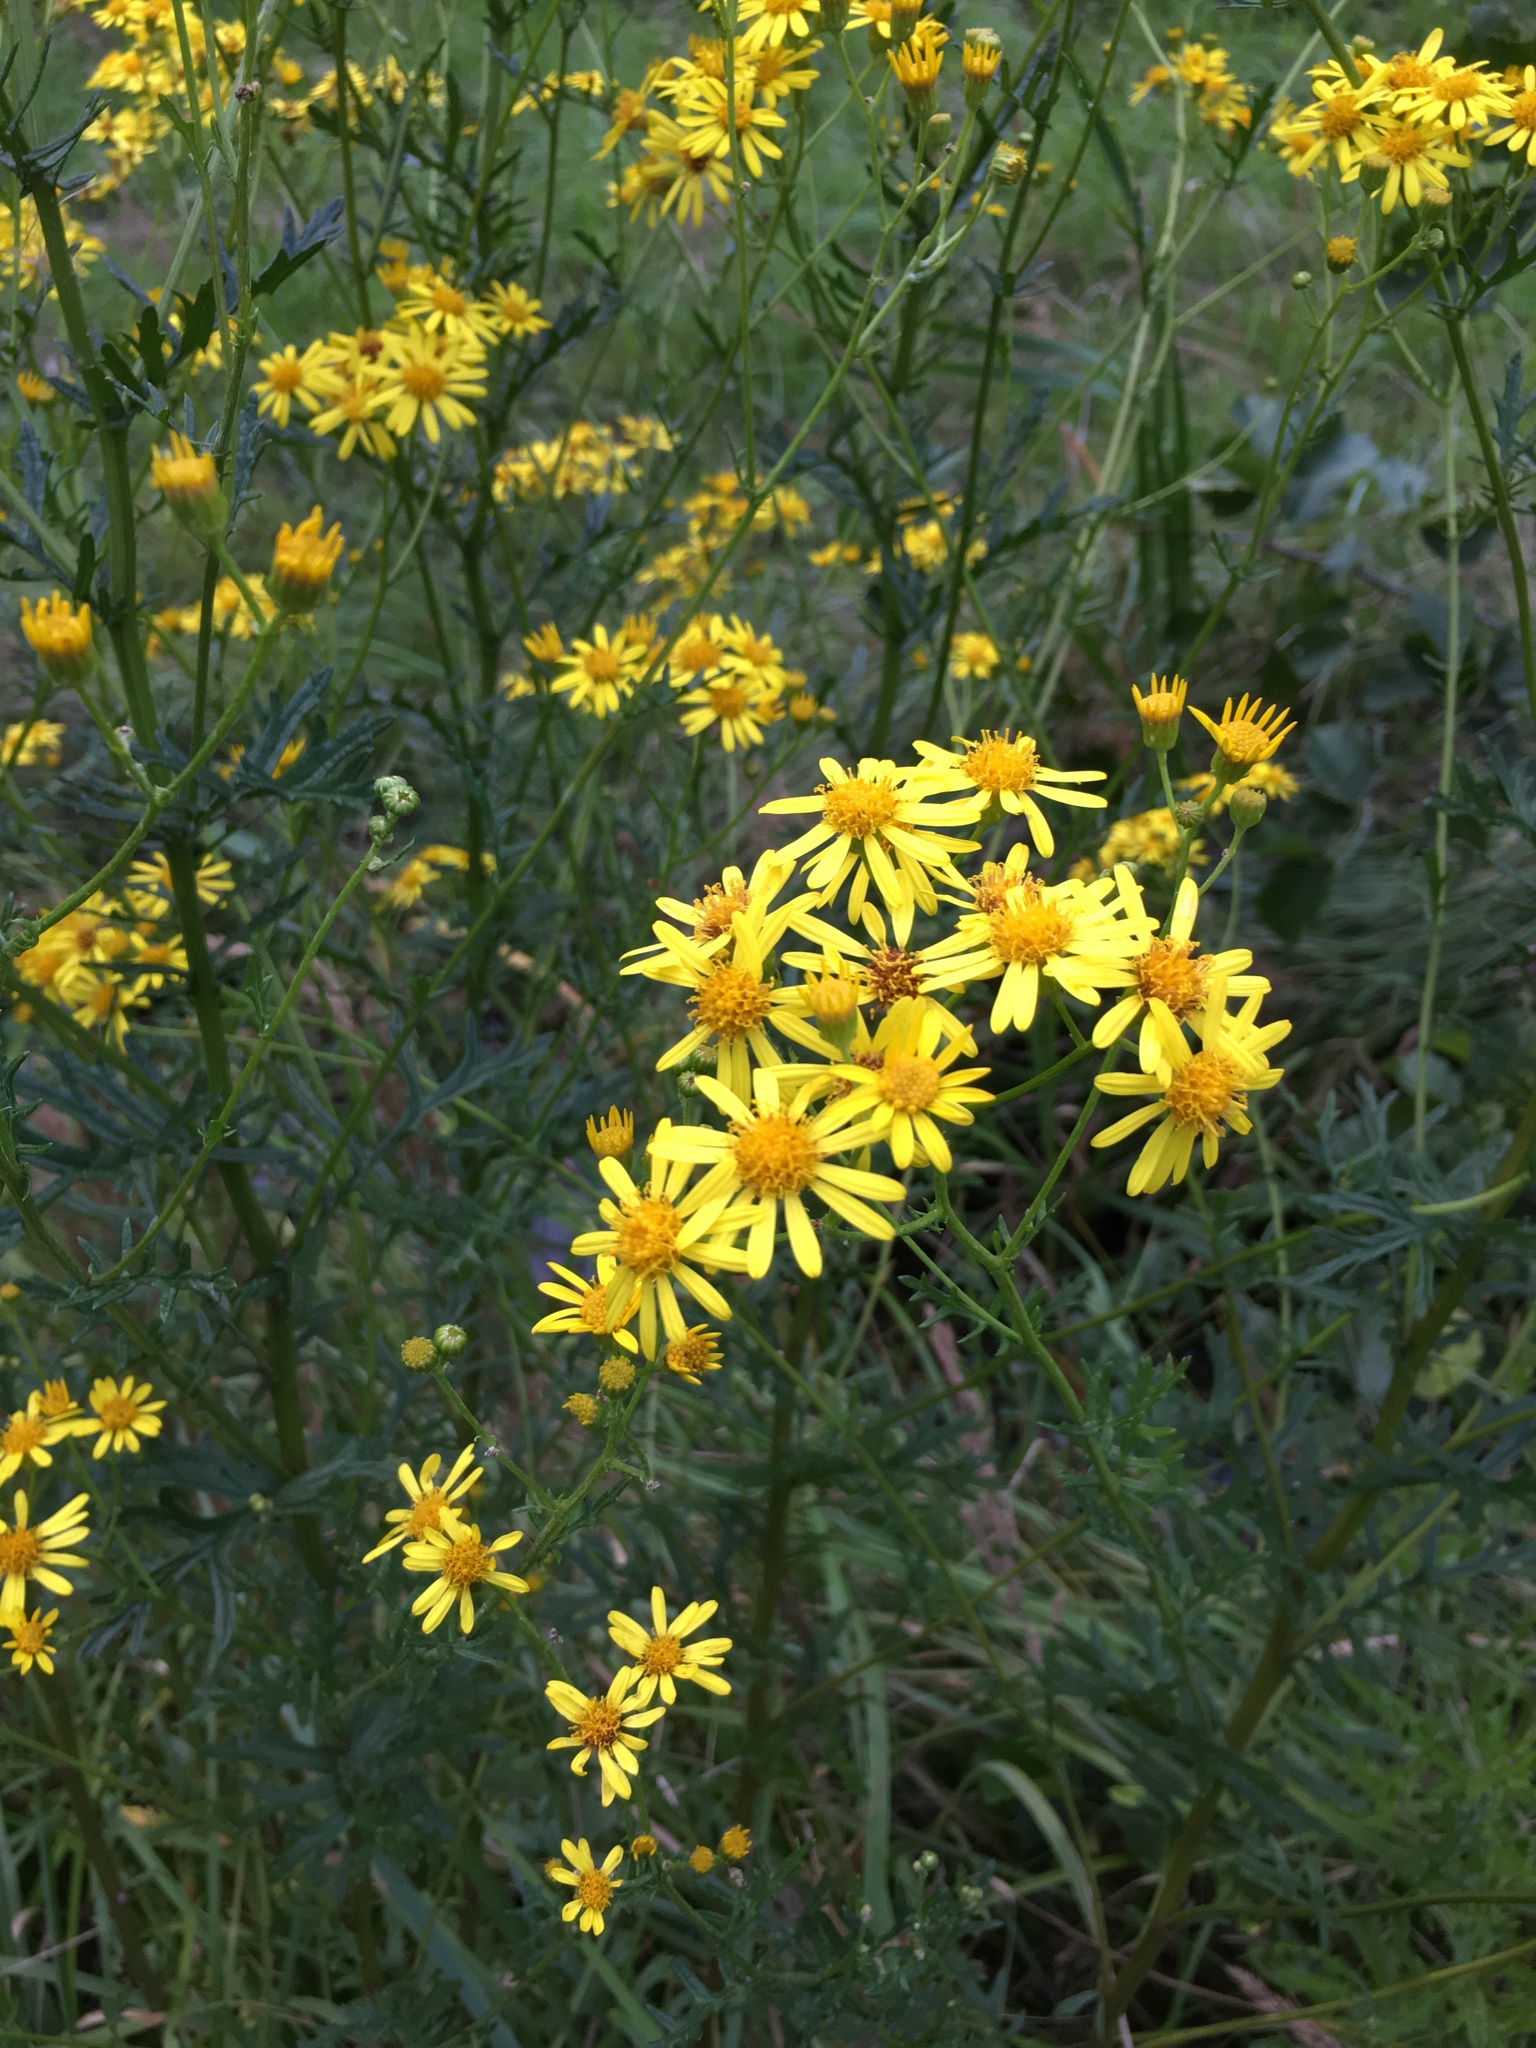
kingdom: Plantae
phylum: Tracheophyta
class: Magnoliopsida
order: Asterales
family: Asteraceae
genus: Jacobaea
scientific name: Jacobaea erucifolia
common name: Hoary ragwort
